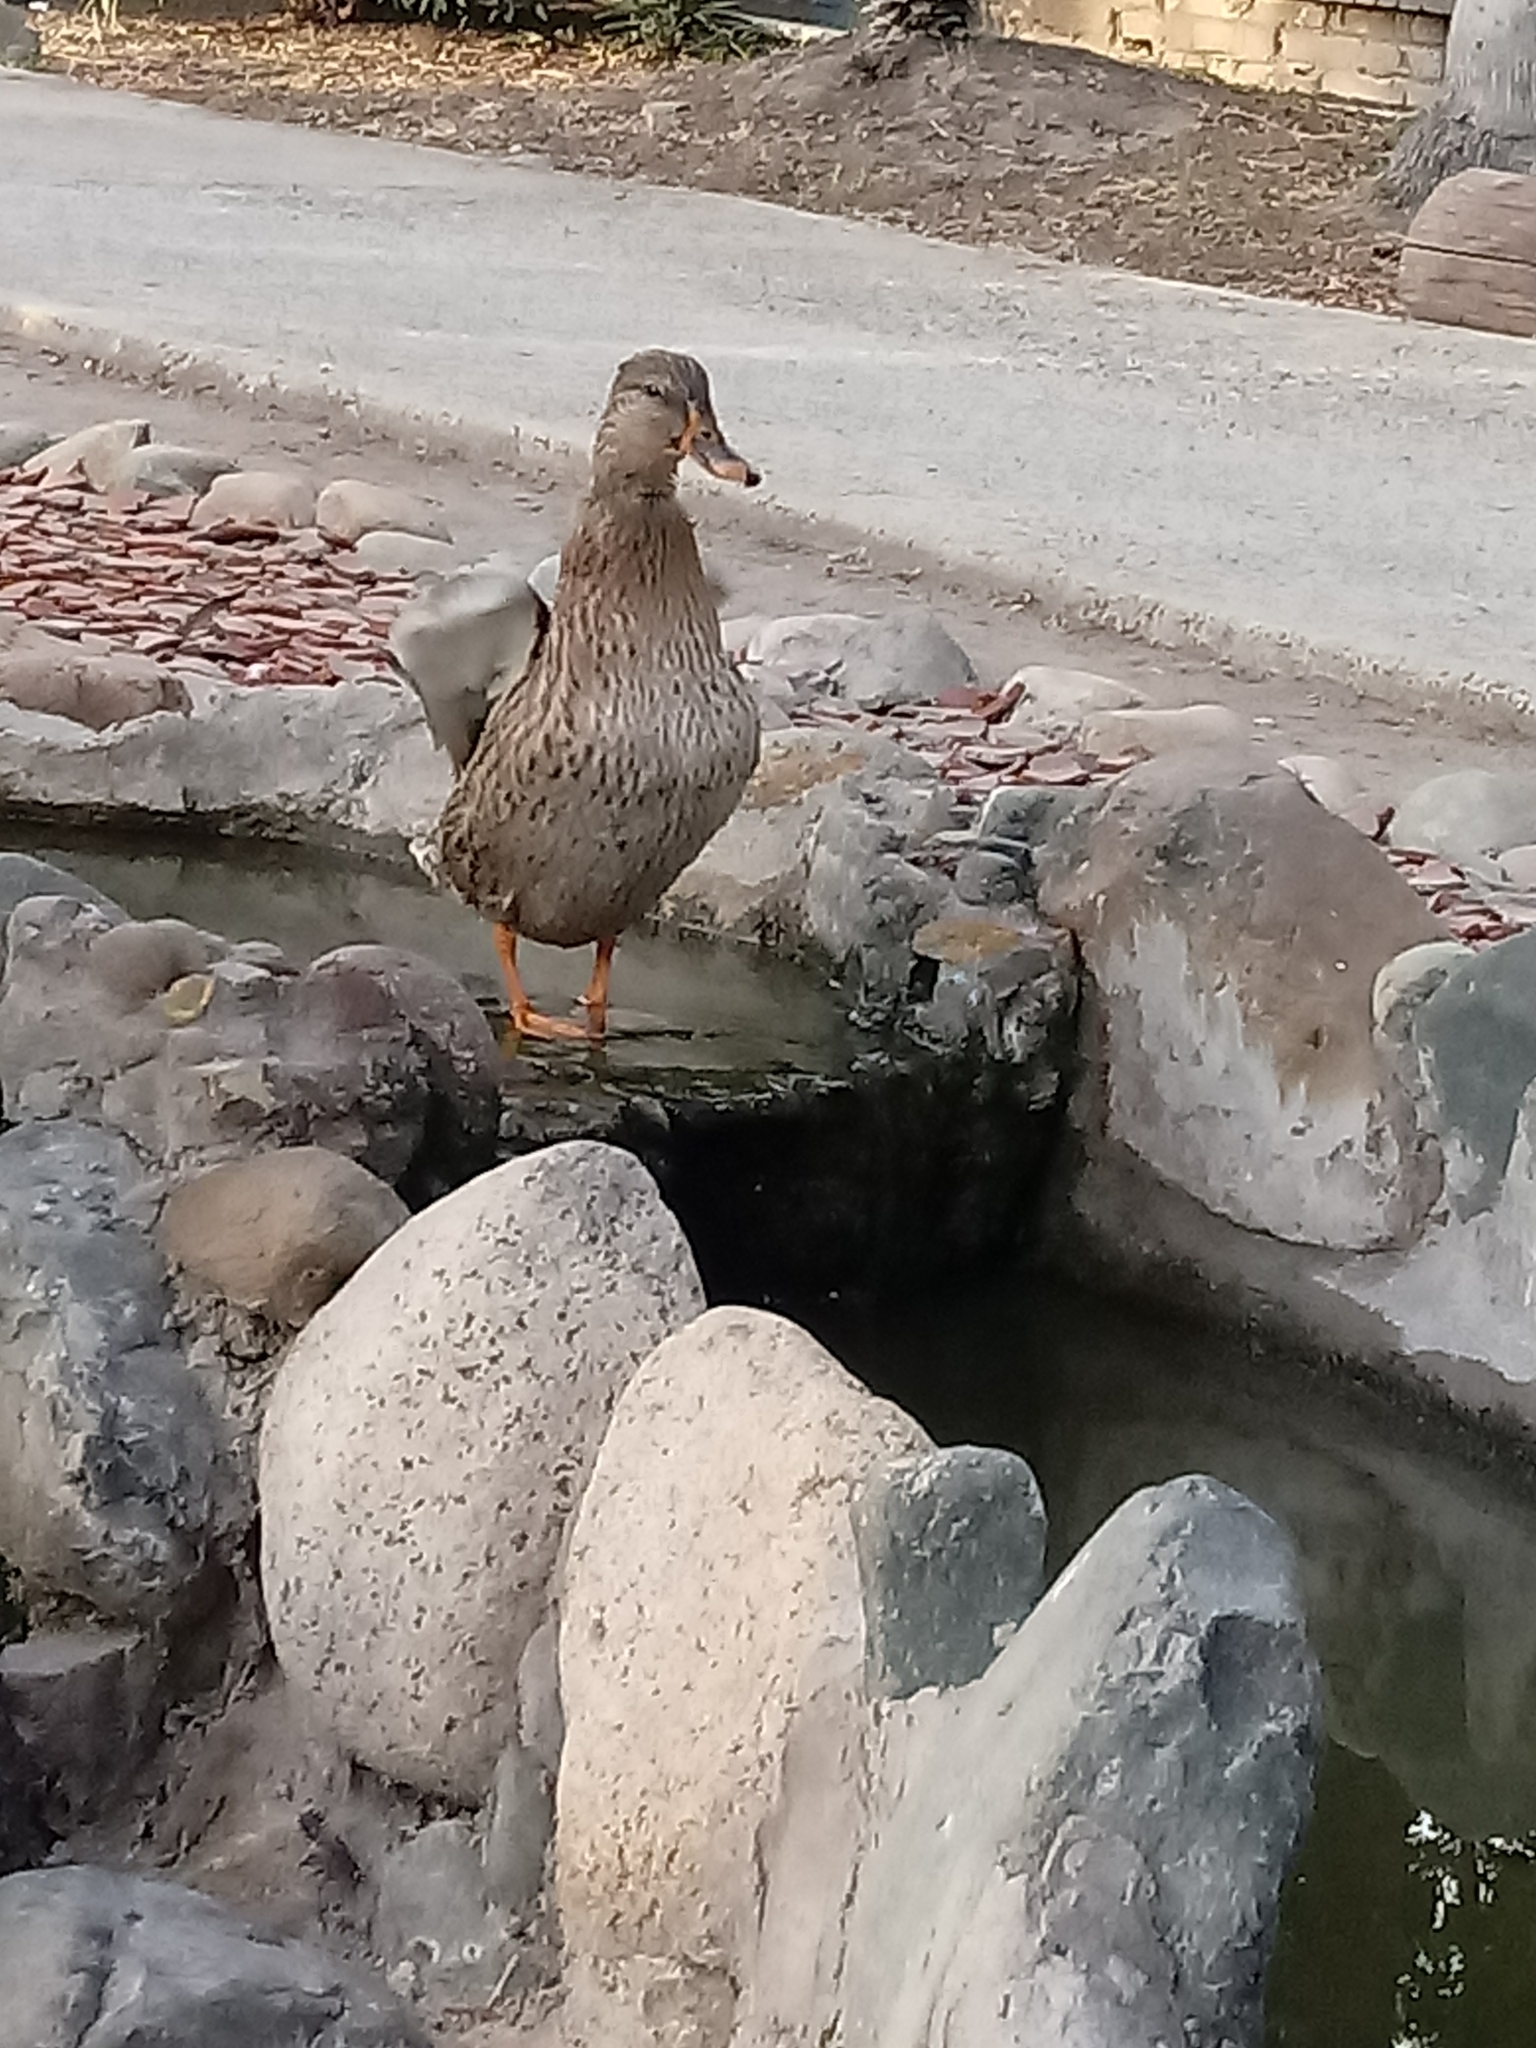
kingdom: Animalia
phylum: Chordata
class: Aves
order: Anseriformes
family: Anatidae
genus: Anas
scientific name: Anas platyrhynchos
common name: Mallard
